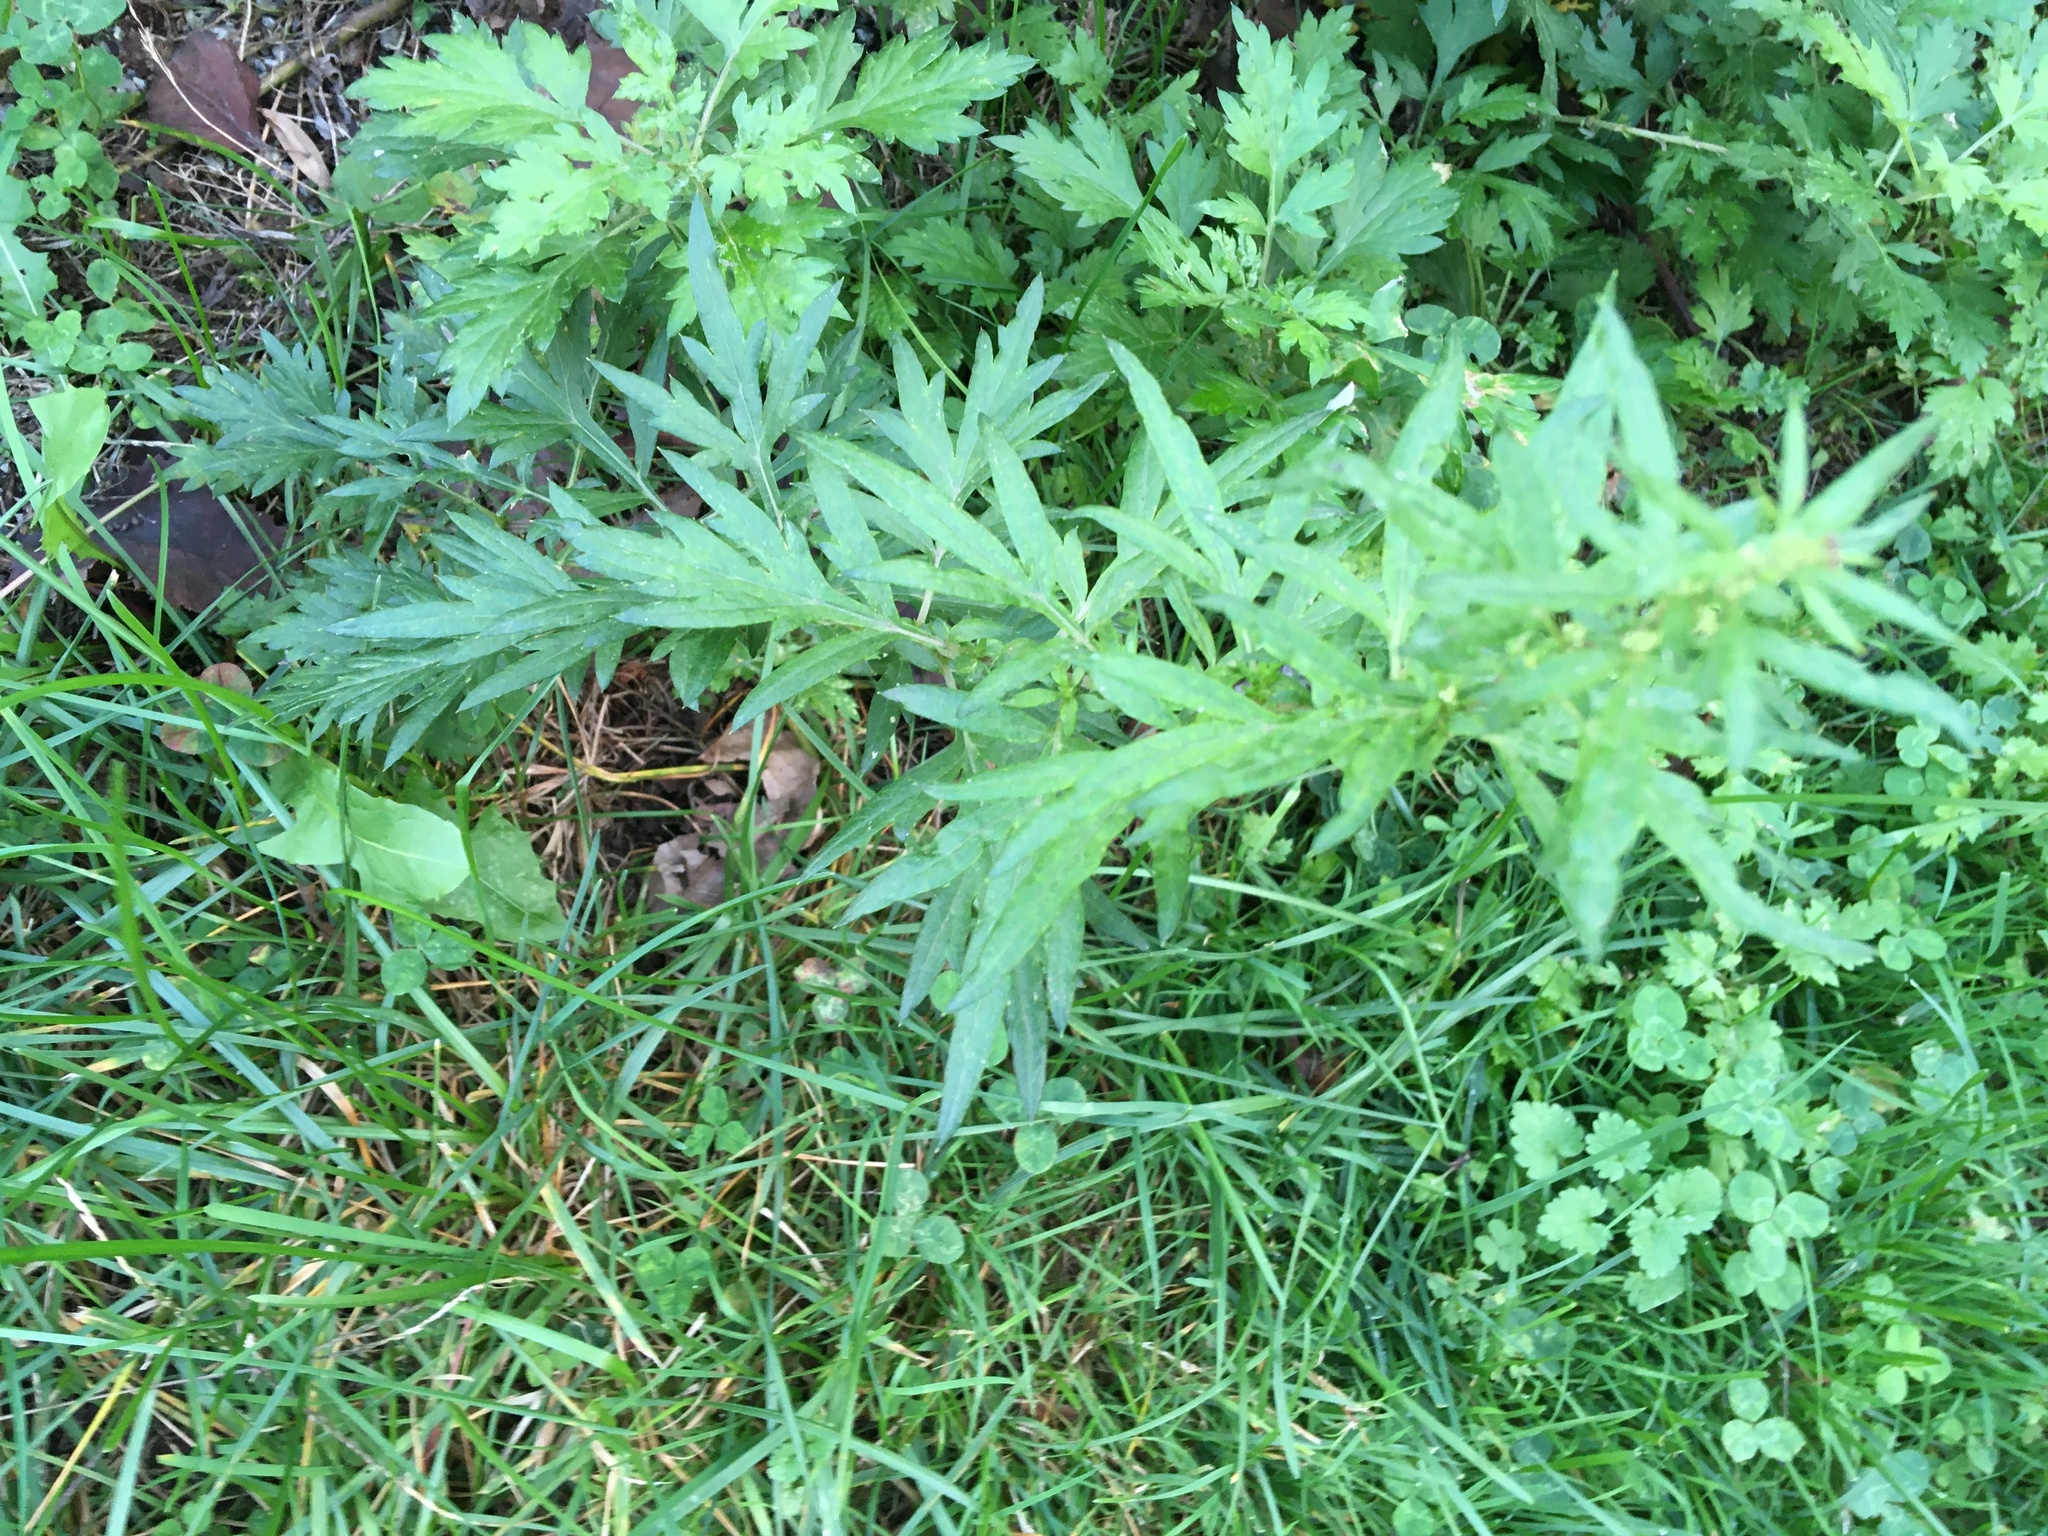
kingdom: Plantae
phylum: Tracheophyta
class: Magnoliopsida
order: Asterales
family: Asteraceae
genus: Artemisia
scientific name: Artemisia vulgaris
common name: Mugwort
